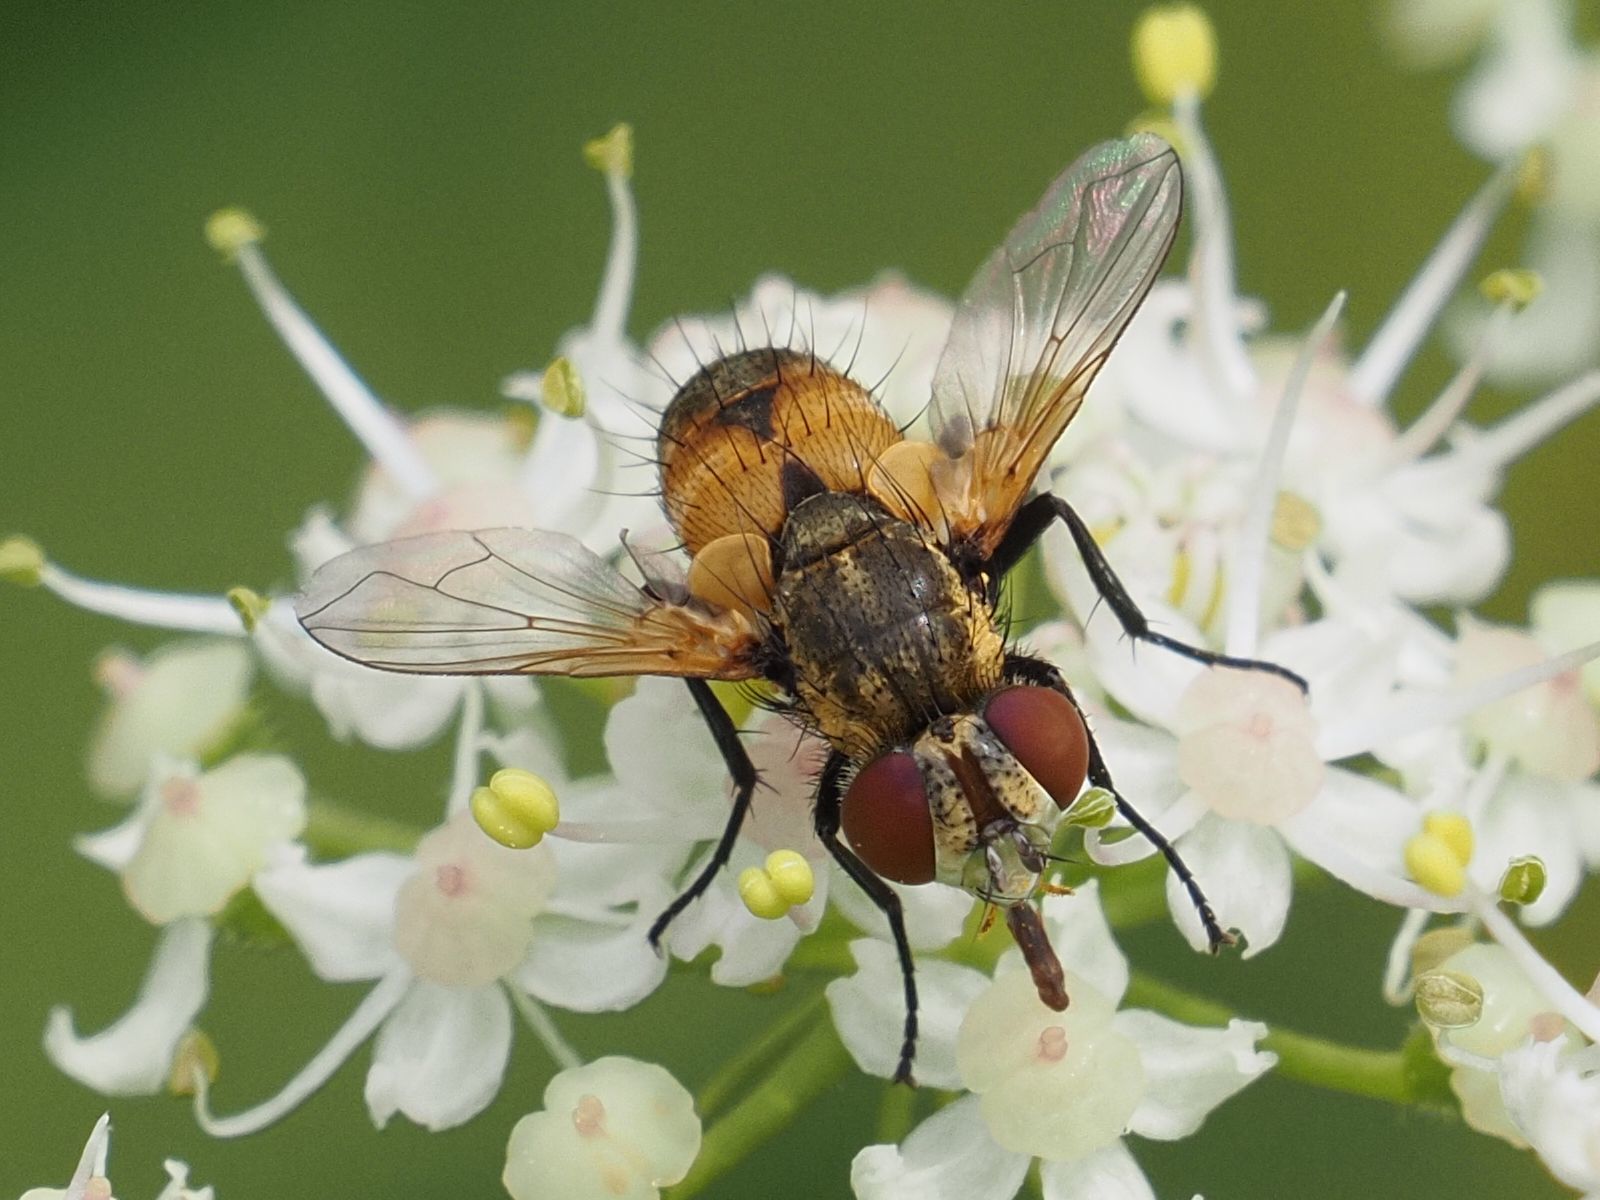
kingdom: Animalia
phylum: Arthropoda
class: Insecta
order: Diptera
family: Tachinidae
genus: Eliozeta
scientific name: Eliozeta pellucens
